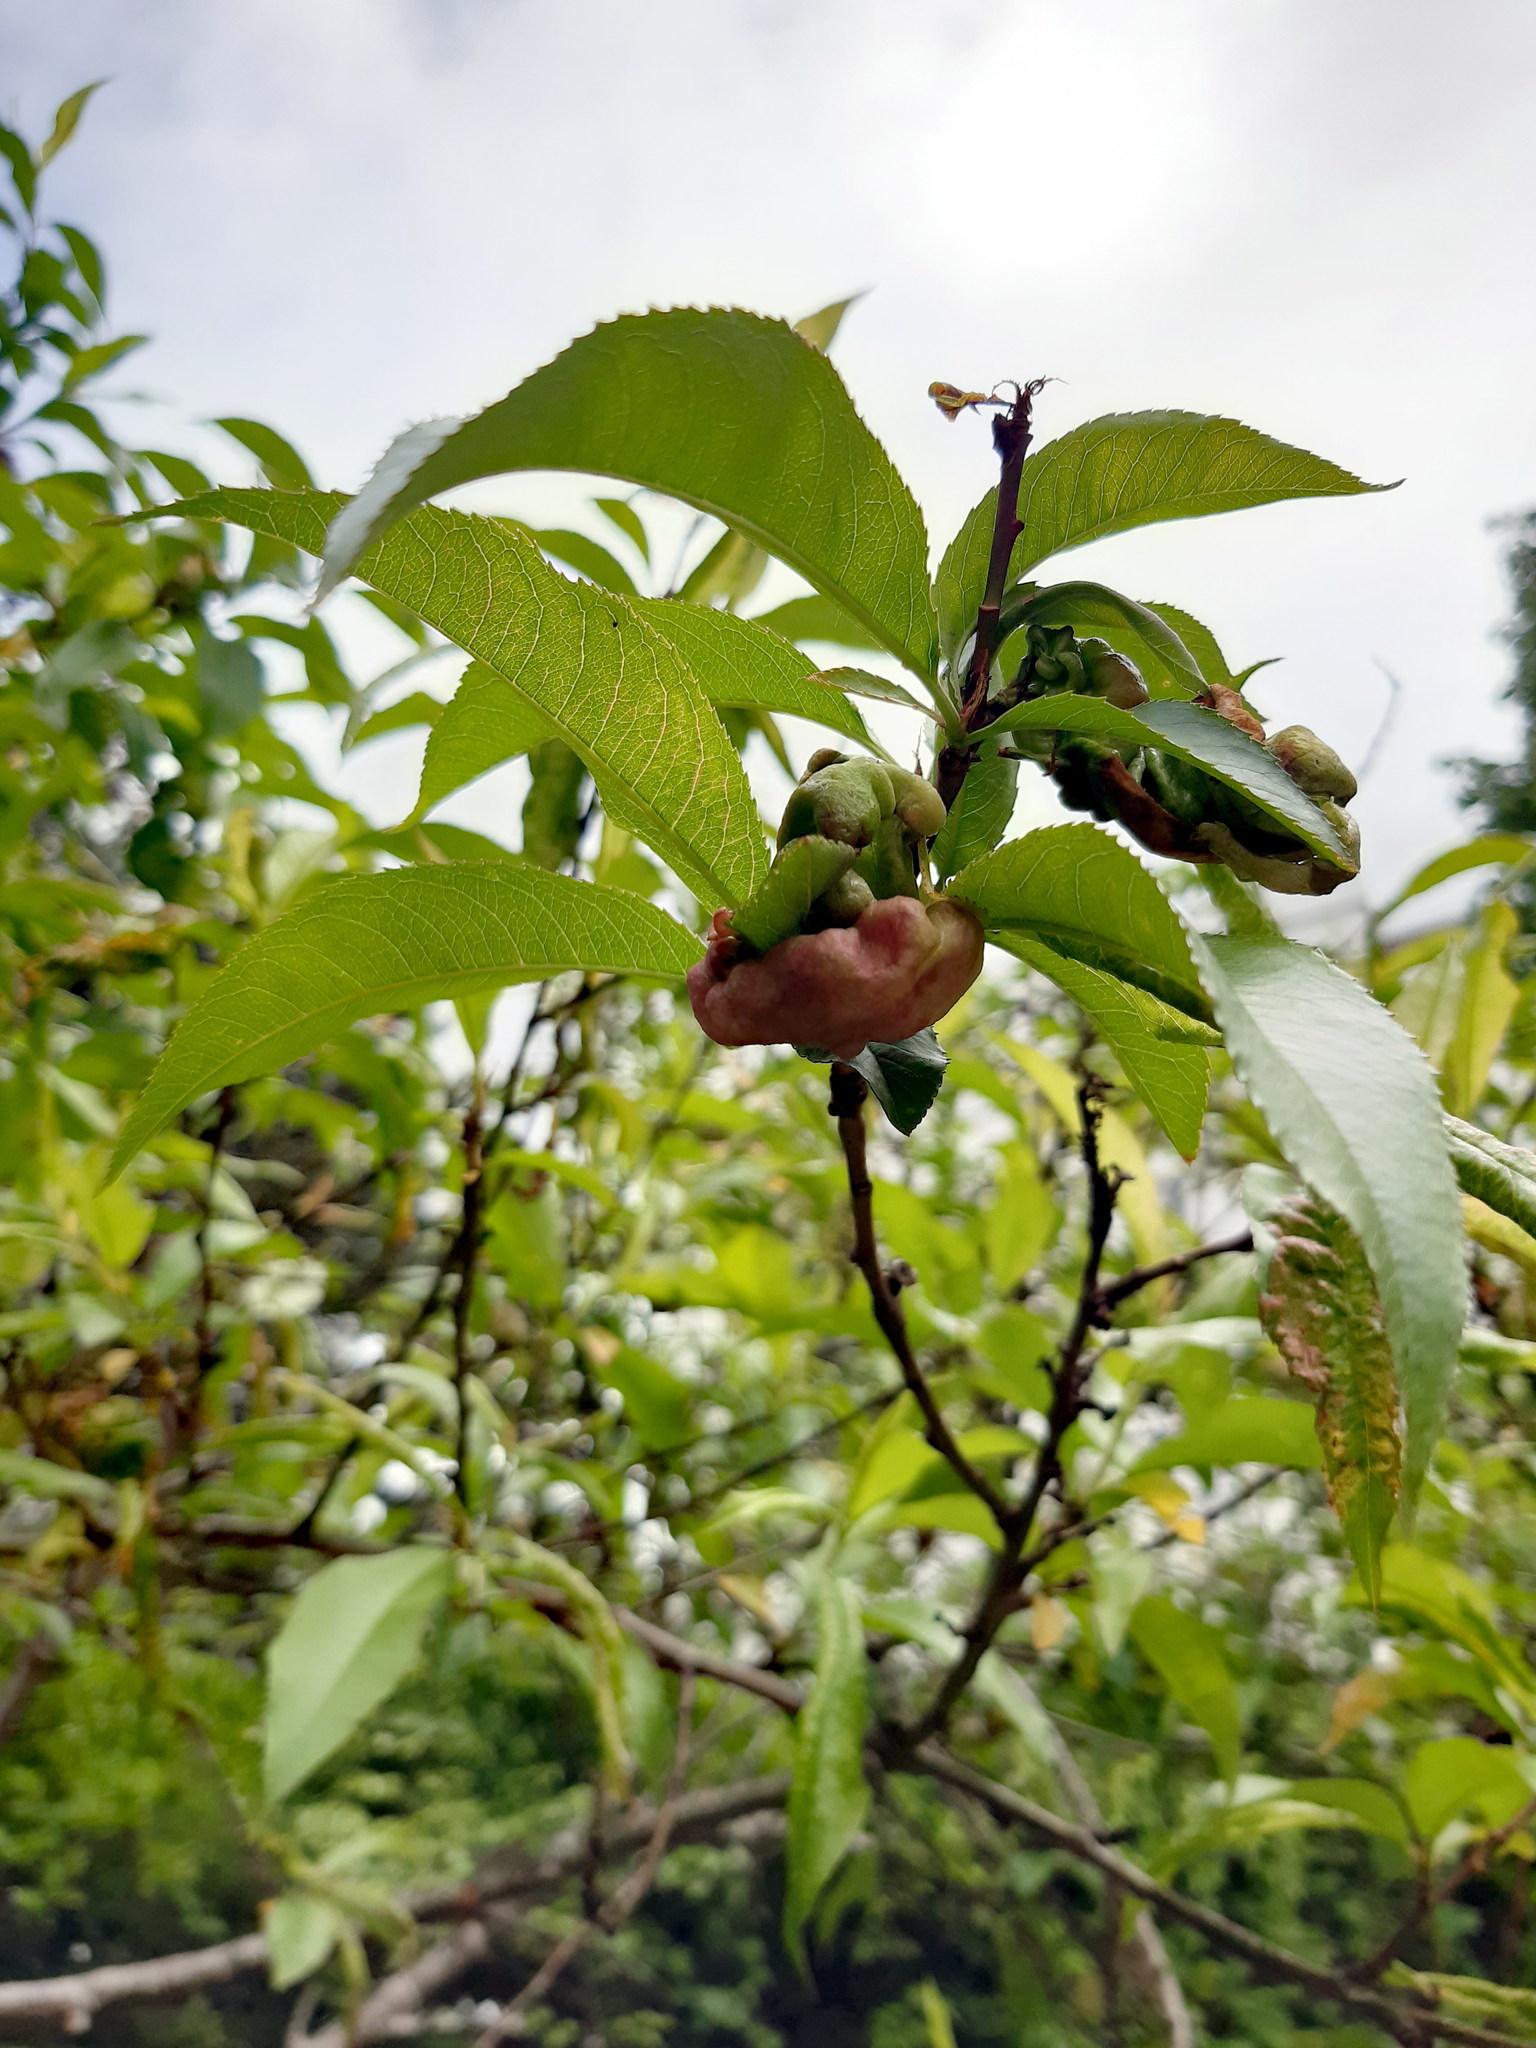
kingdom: Fungi
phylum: Ascomycota
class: Taphrinomycetes
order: Taphrinales
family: Taphrinaceae
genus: Taphrina
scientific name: Taphrina deformans
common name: Peach leaf curl
